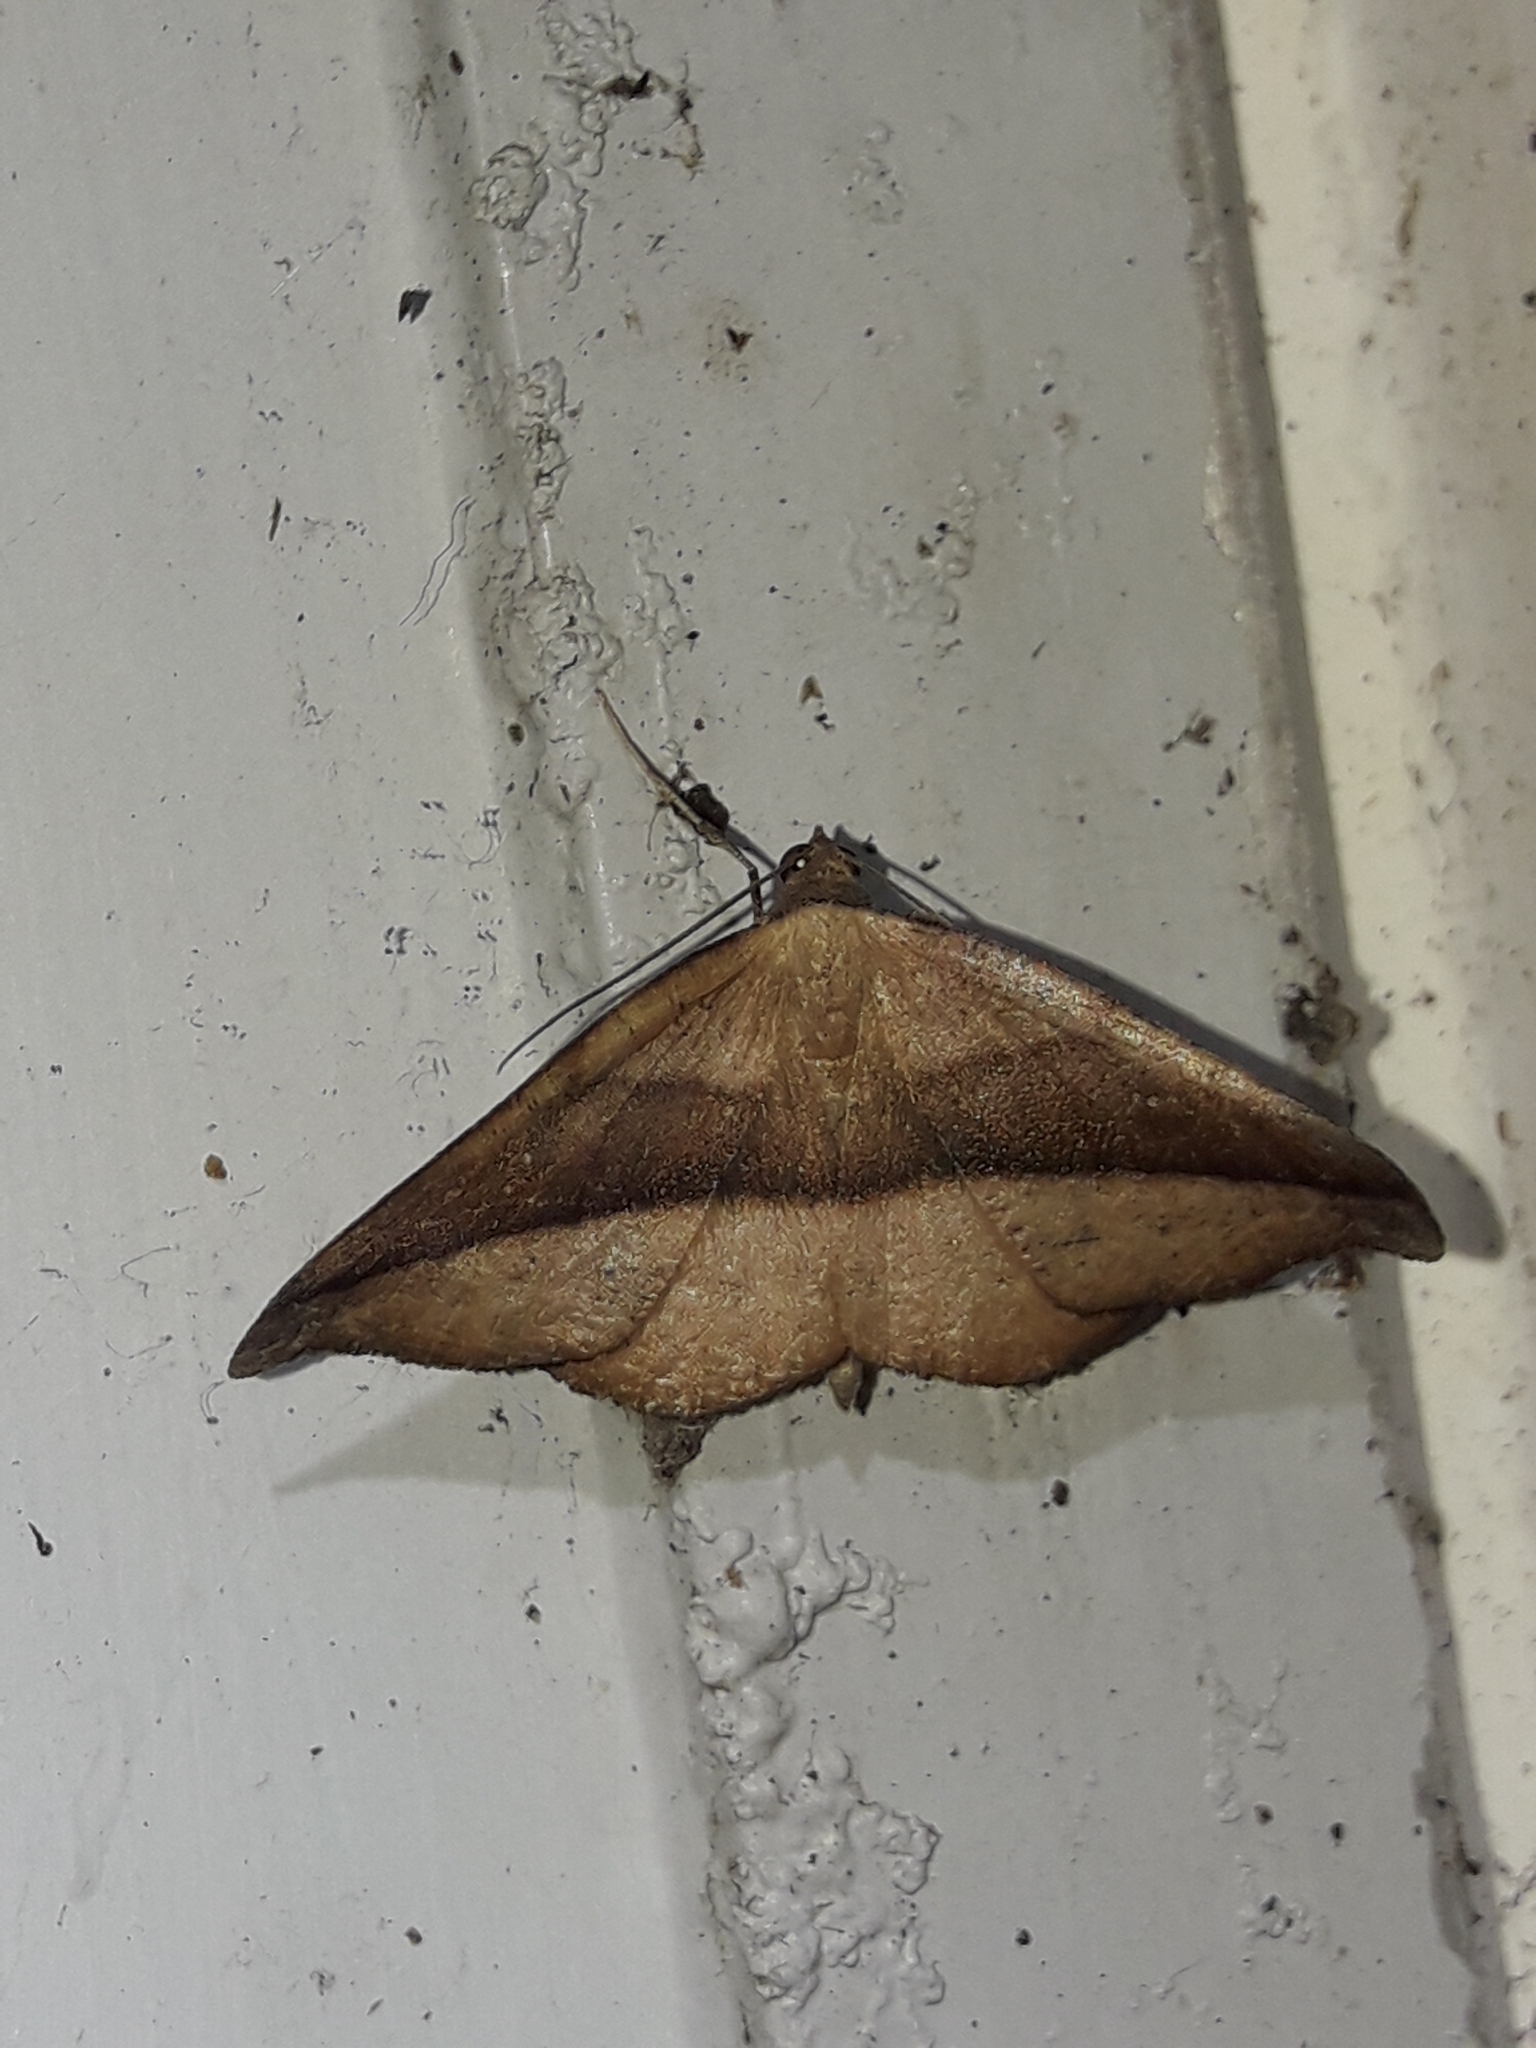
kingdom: Animalia
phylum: Arthropoda
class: Insecta
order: Lepidoptera
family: Geometridae
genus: Sarisa
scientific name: Sarisa muriferata
